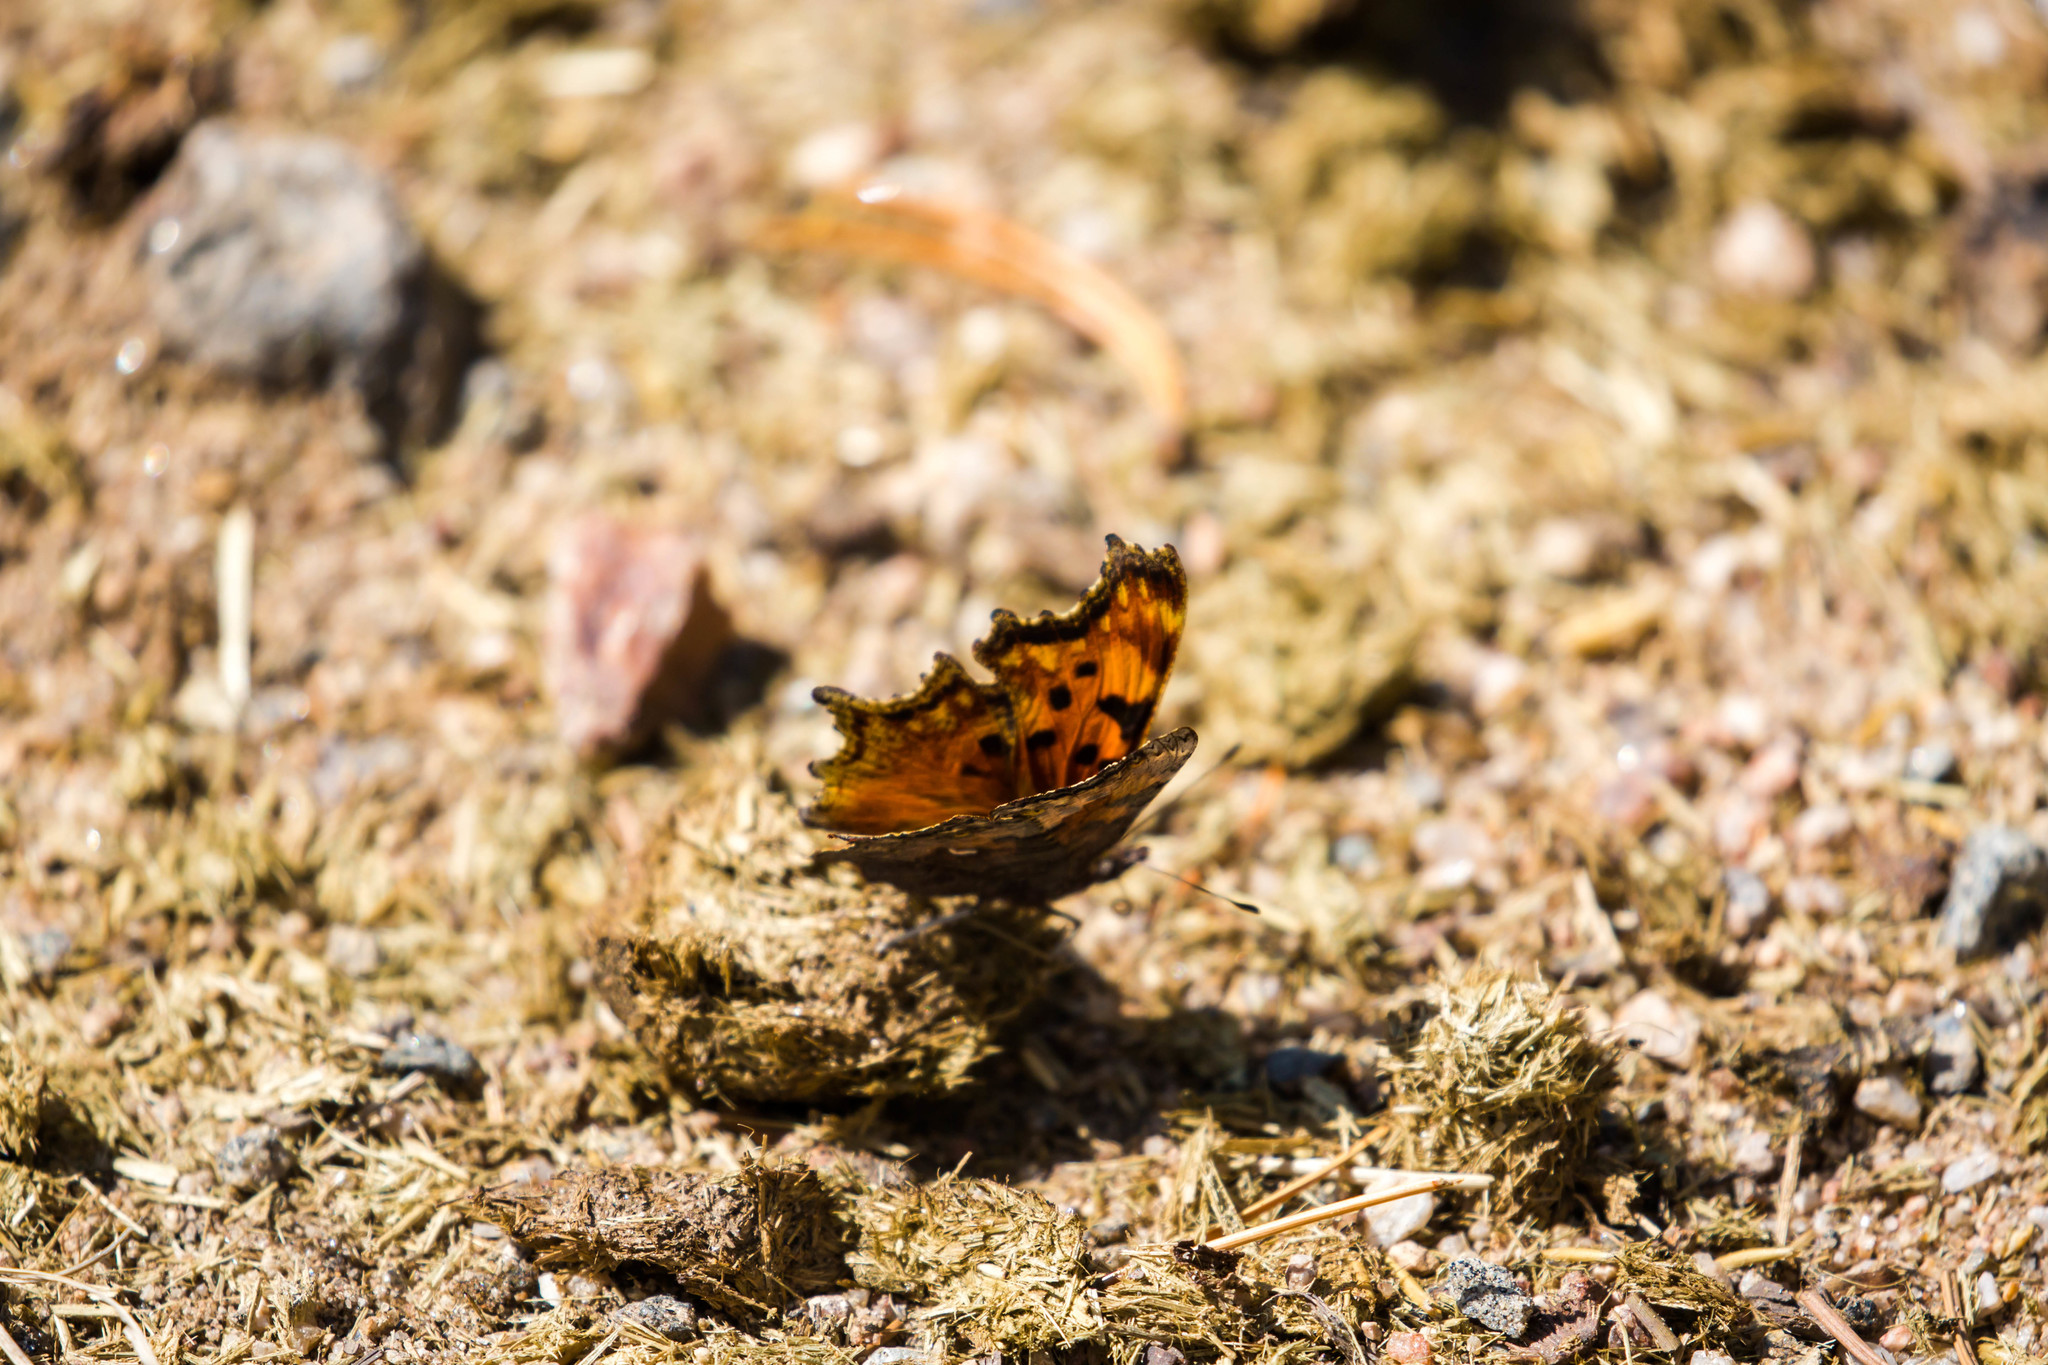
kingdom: Animalia
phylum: Arthropoda
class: Insecta
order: Lepidoptera
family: Nymphalidae
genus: Polygonia
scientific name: Polygonia gracilis
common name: Hoary comma
